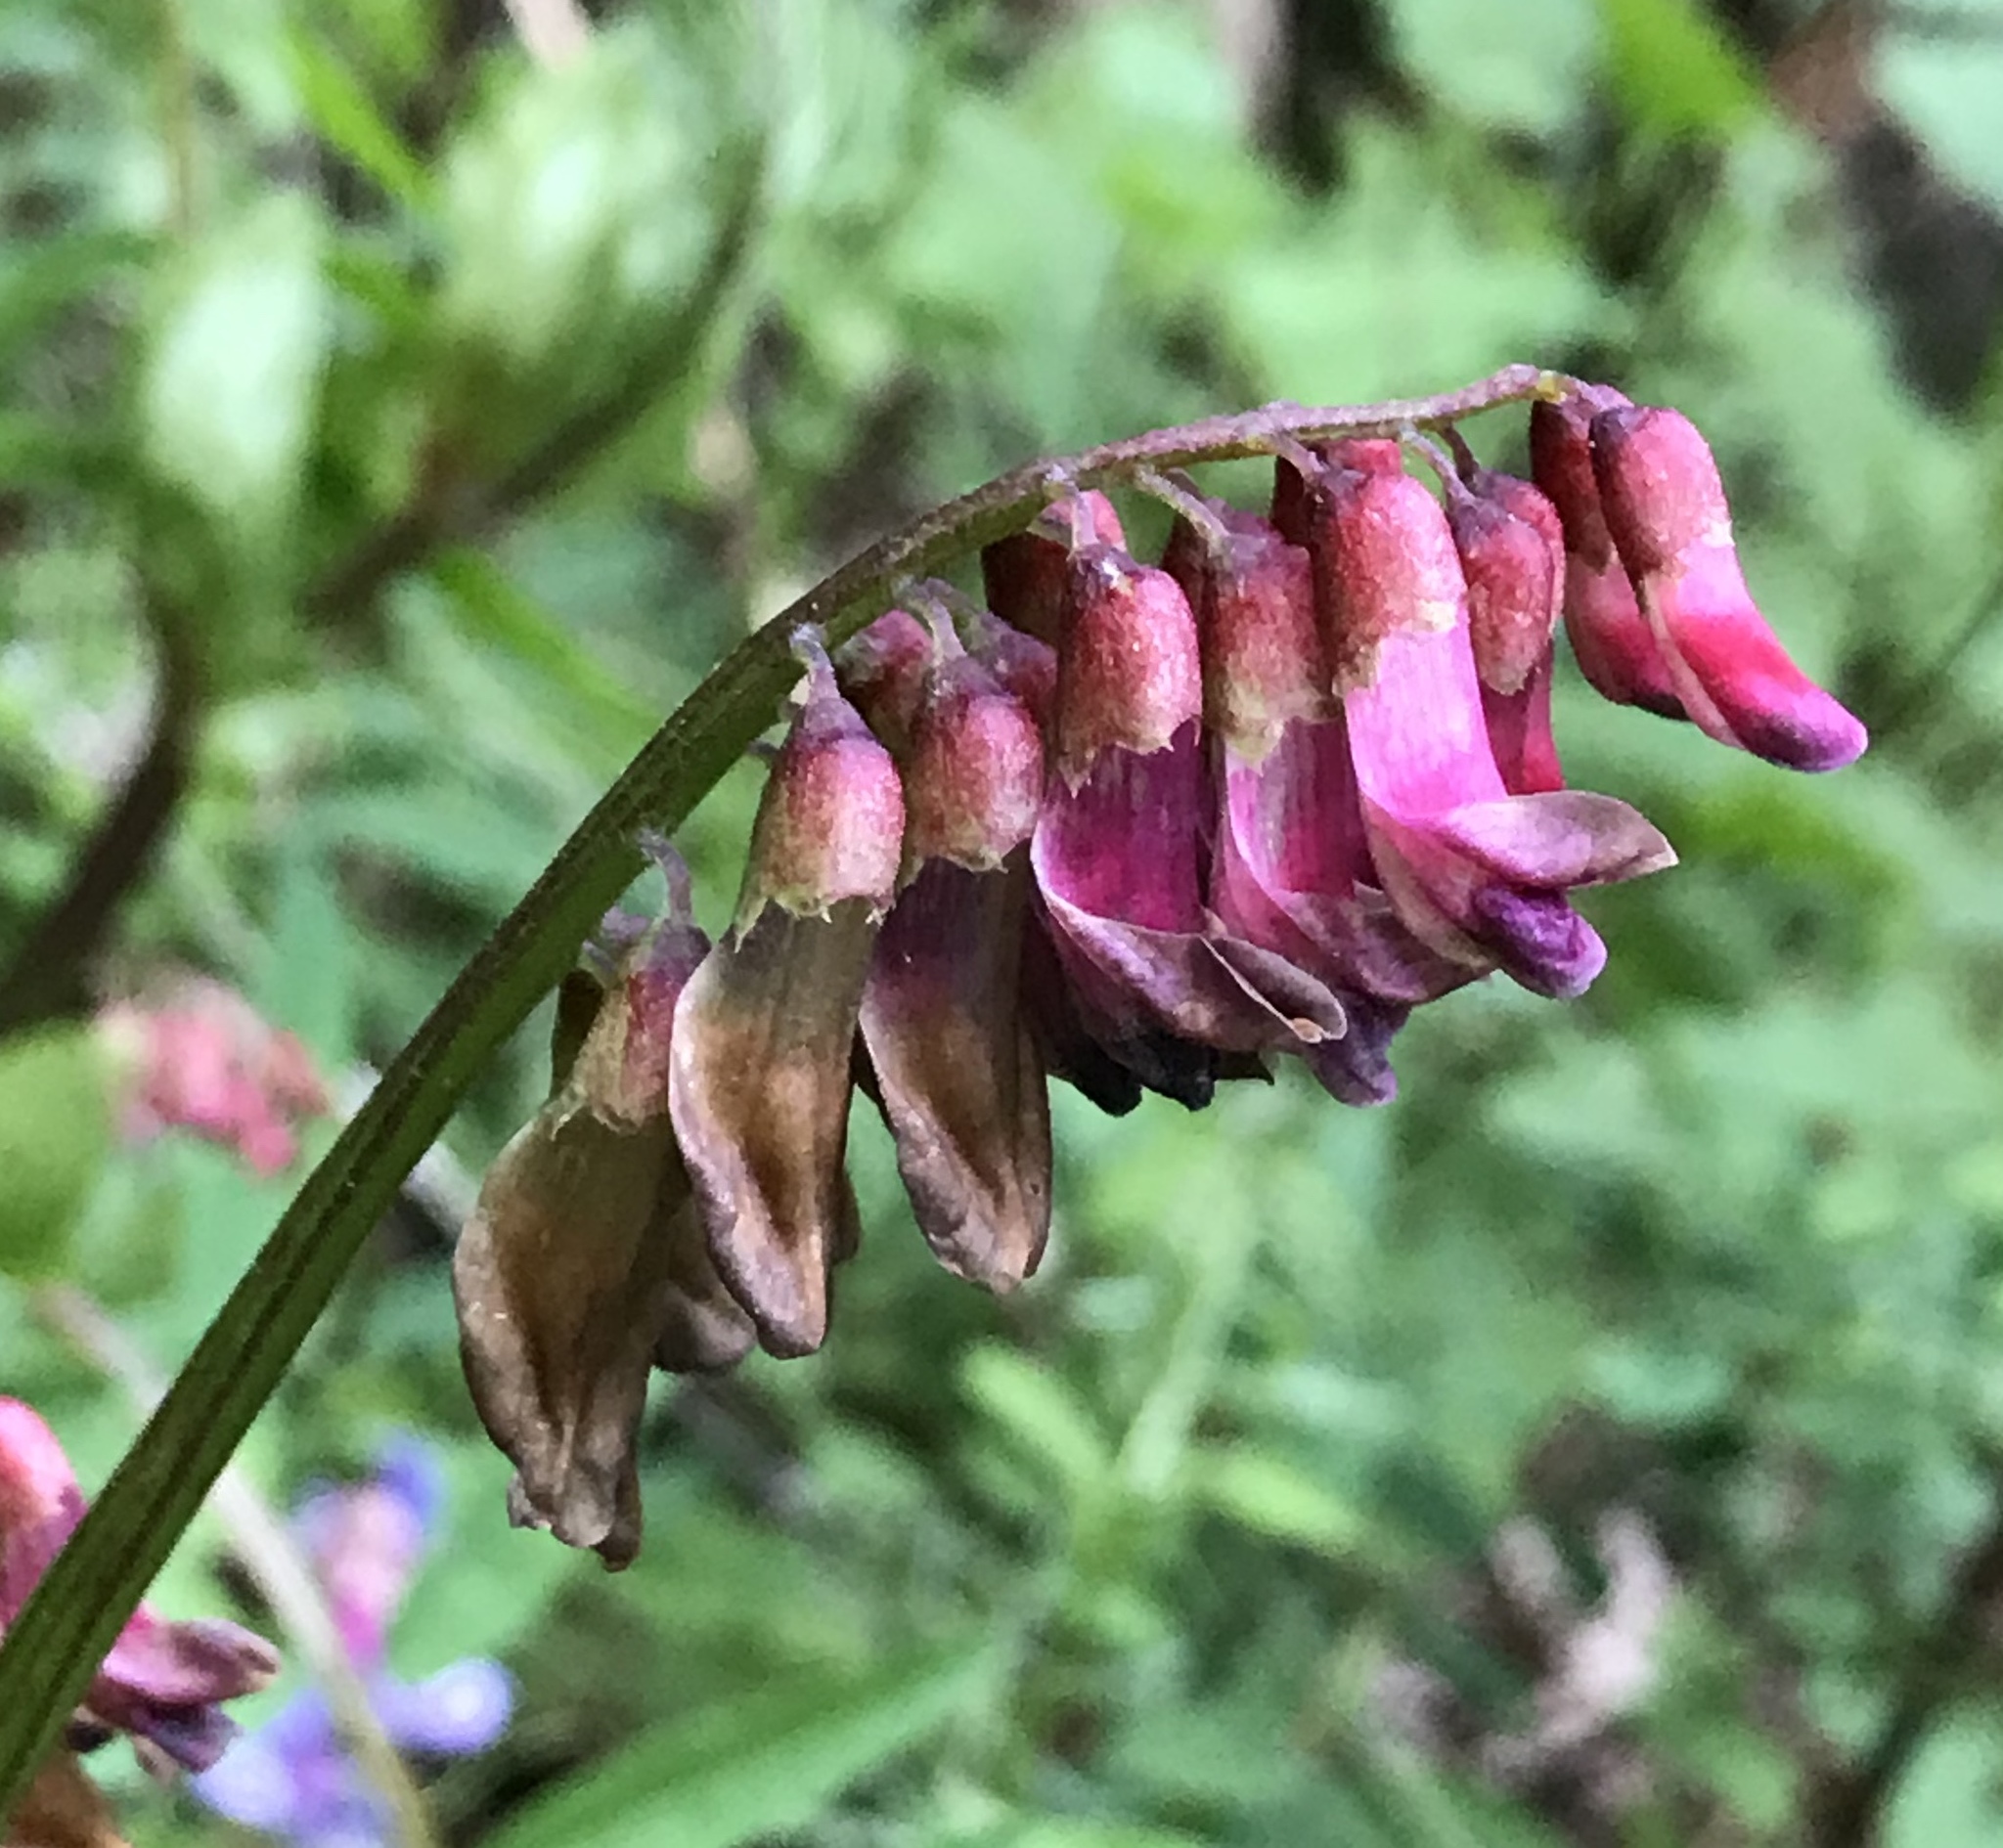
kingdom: Plantae
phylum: Tracheophyta
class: Magnoliopsida
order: Fabales
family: Fabaceae
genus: Vicia
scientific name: Vicia
